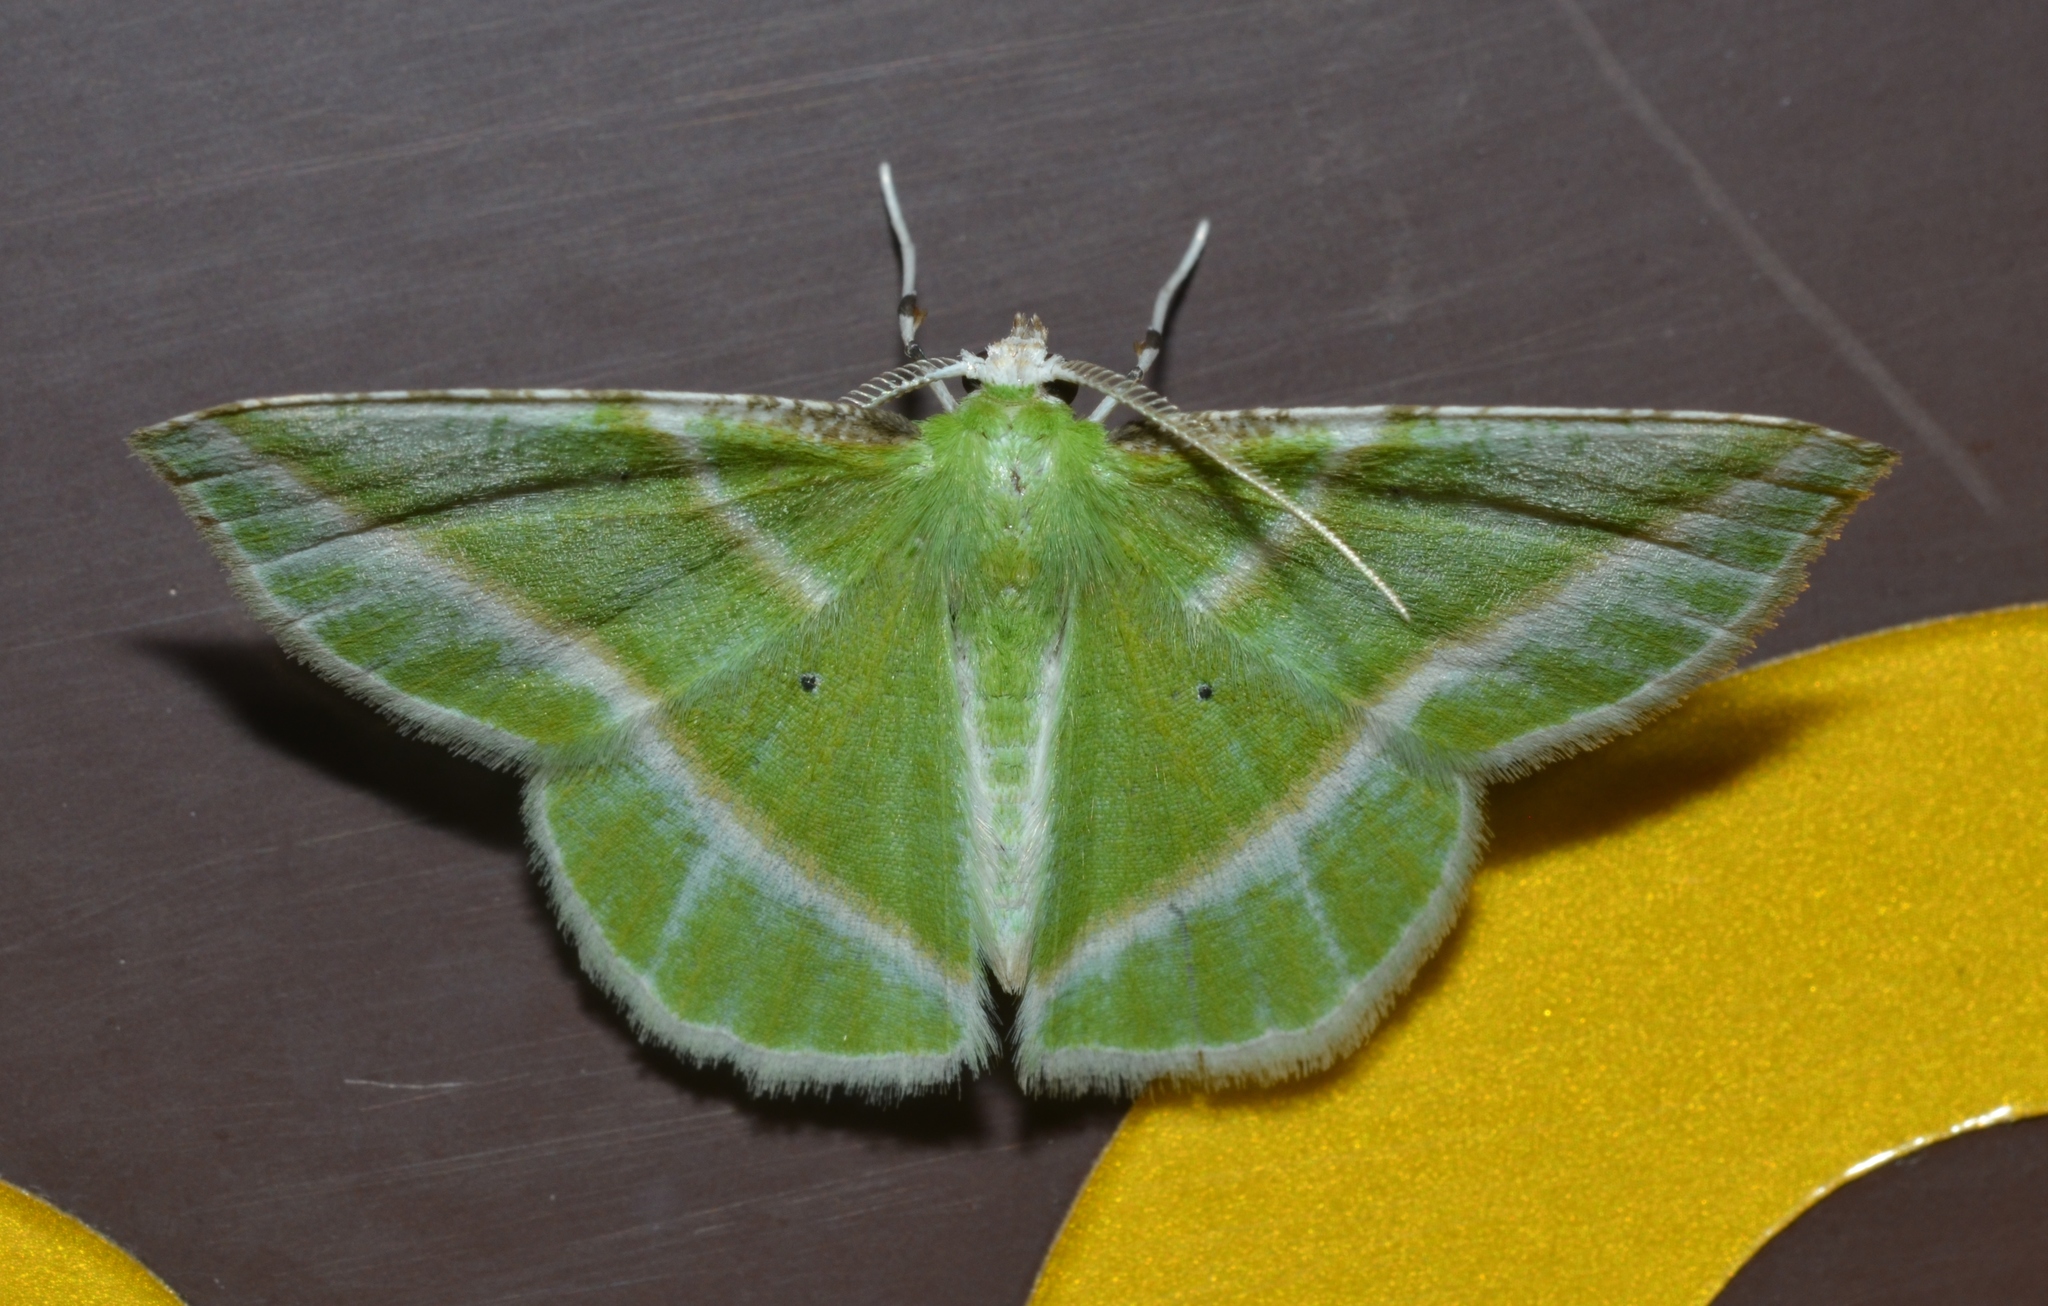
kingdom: Animalia
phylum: Arthropoda
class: Insecta
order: Lepidoptera
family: Geometridae
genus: Dichorda
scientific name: Dichorda iridaria
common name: Showy emerald
